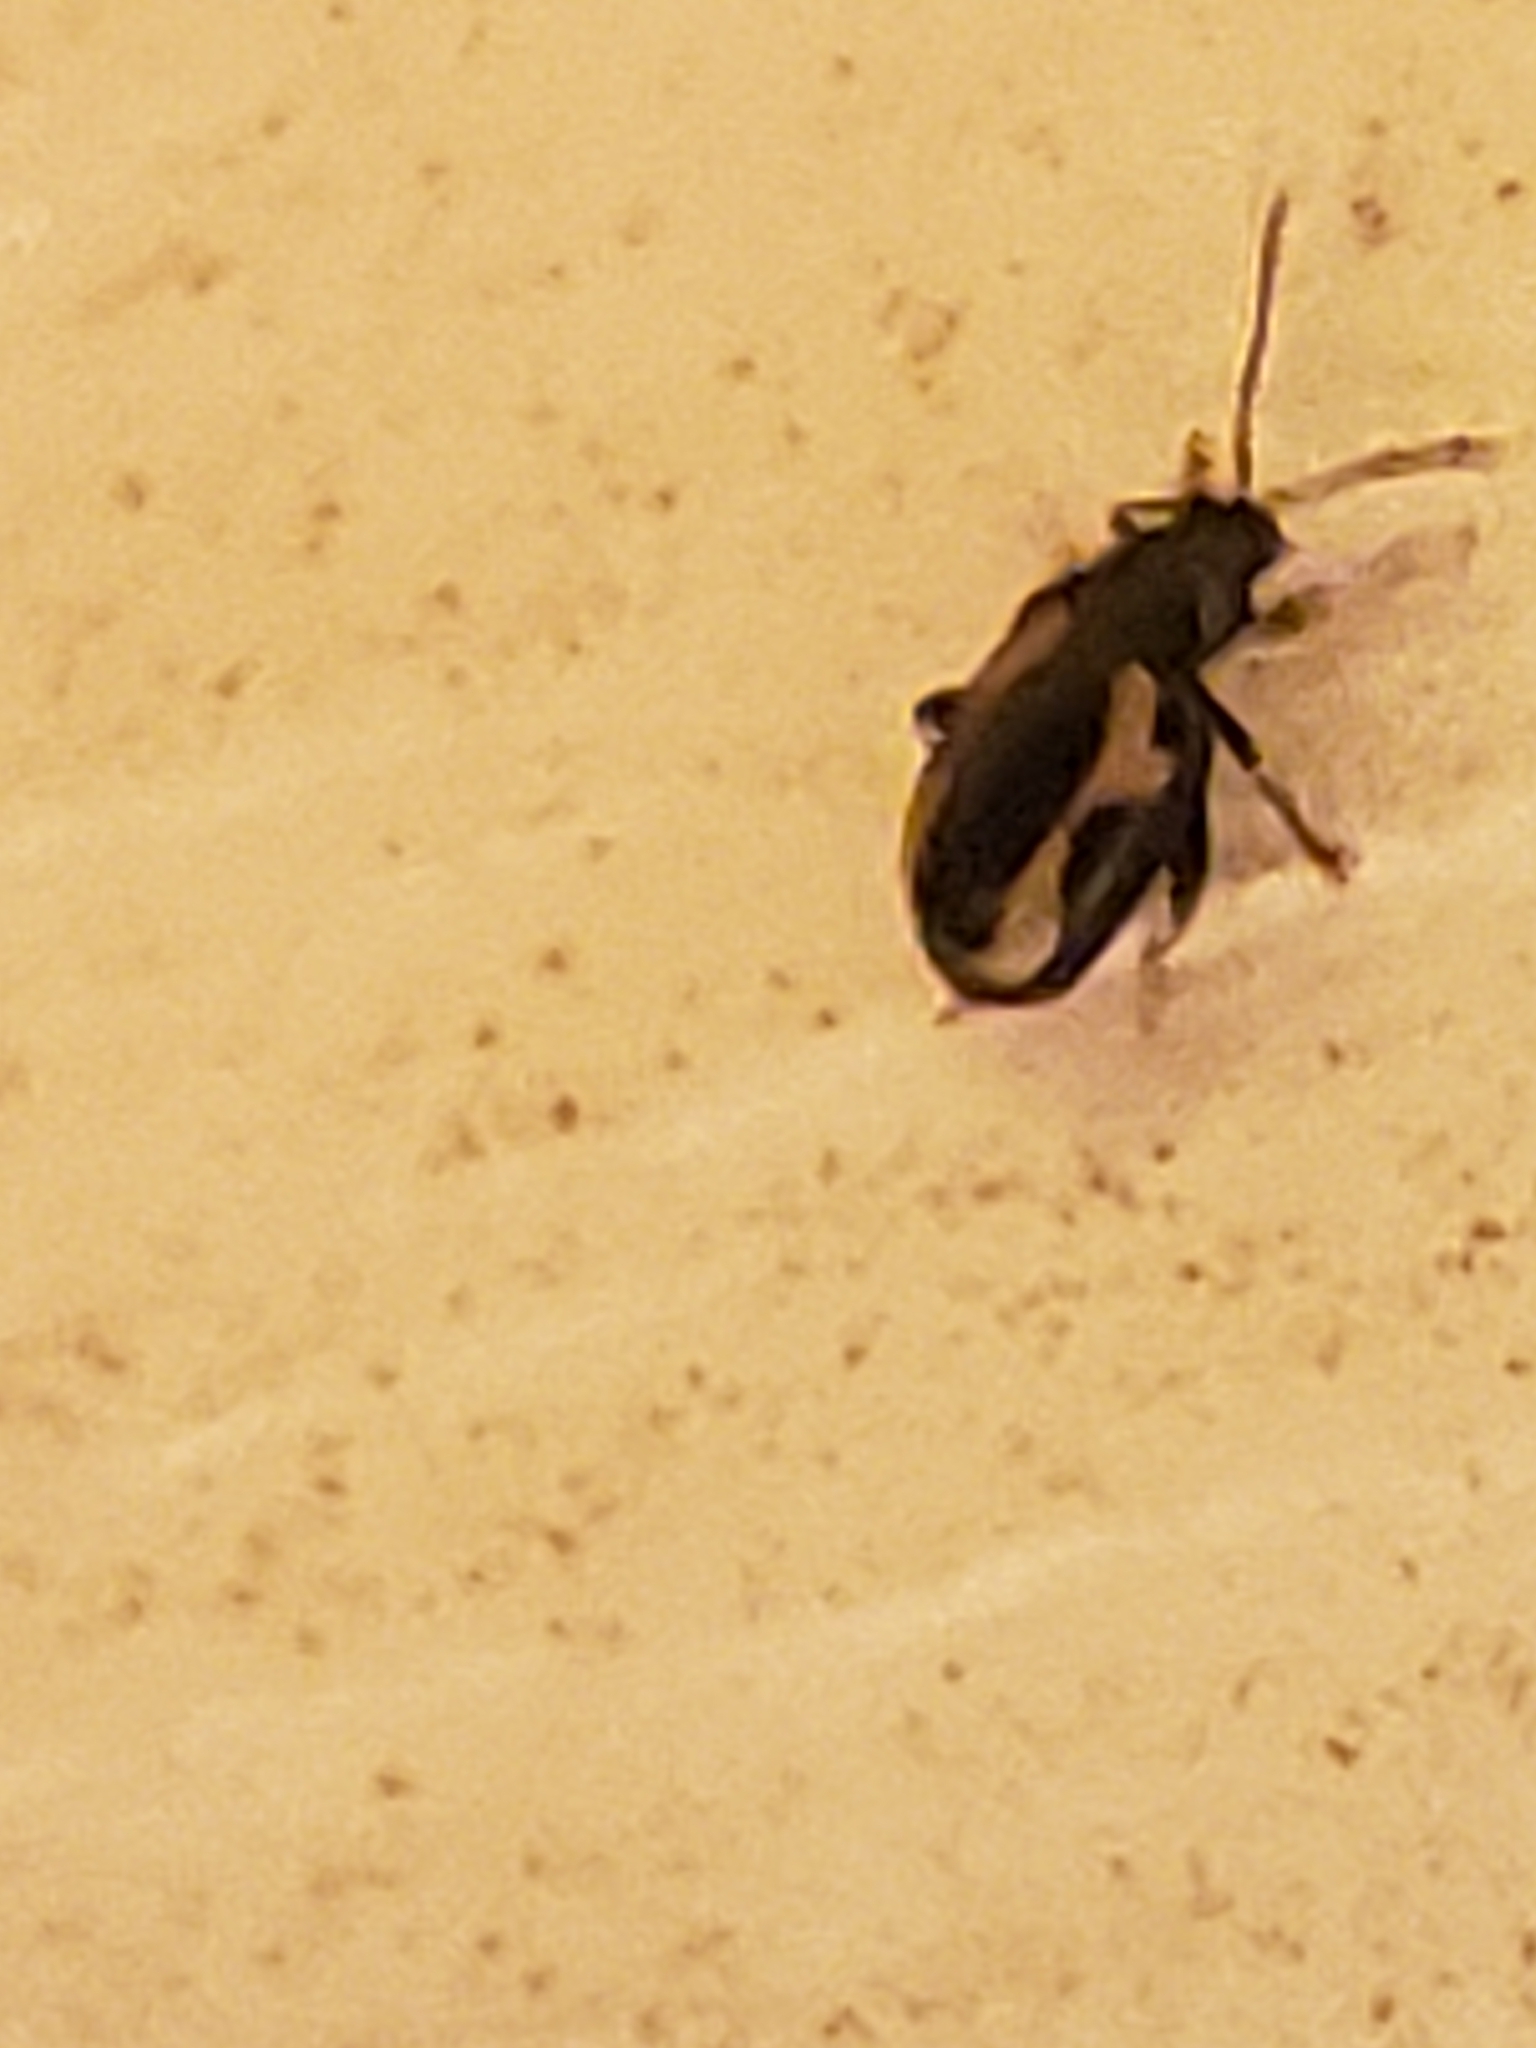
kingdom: Animalia
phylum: Arthropoda
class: Insecta
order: Coleoptera
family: Chrysomelidae
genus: Phyllotreta
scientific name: Phyllotreta striolata
